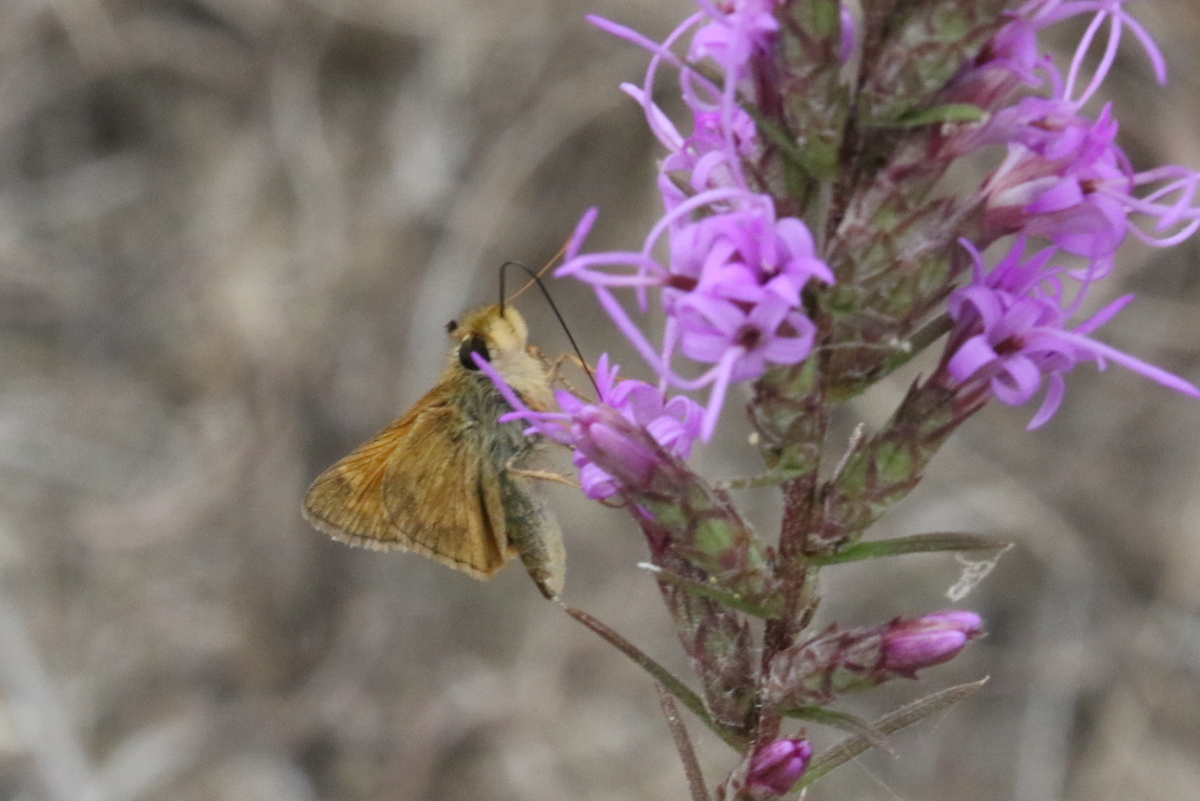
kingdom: Animalia
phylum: Arthropoda
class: Insecta
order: Lepidoptera
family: Hesperiidae
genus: Atalopedes
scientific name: Atalopedes
